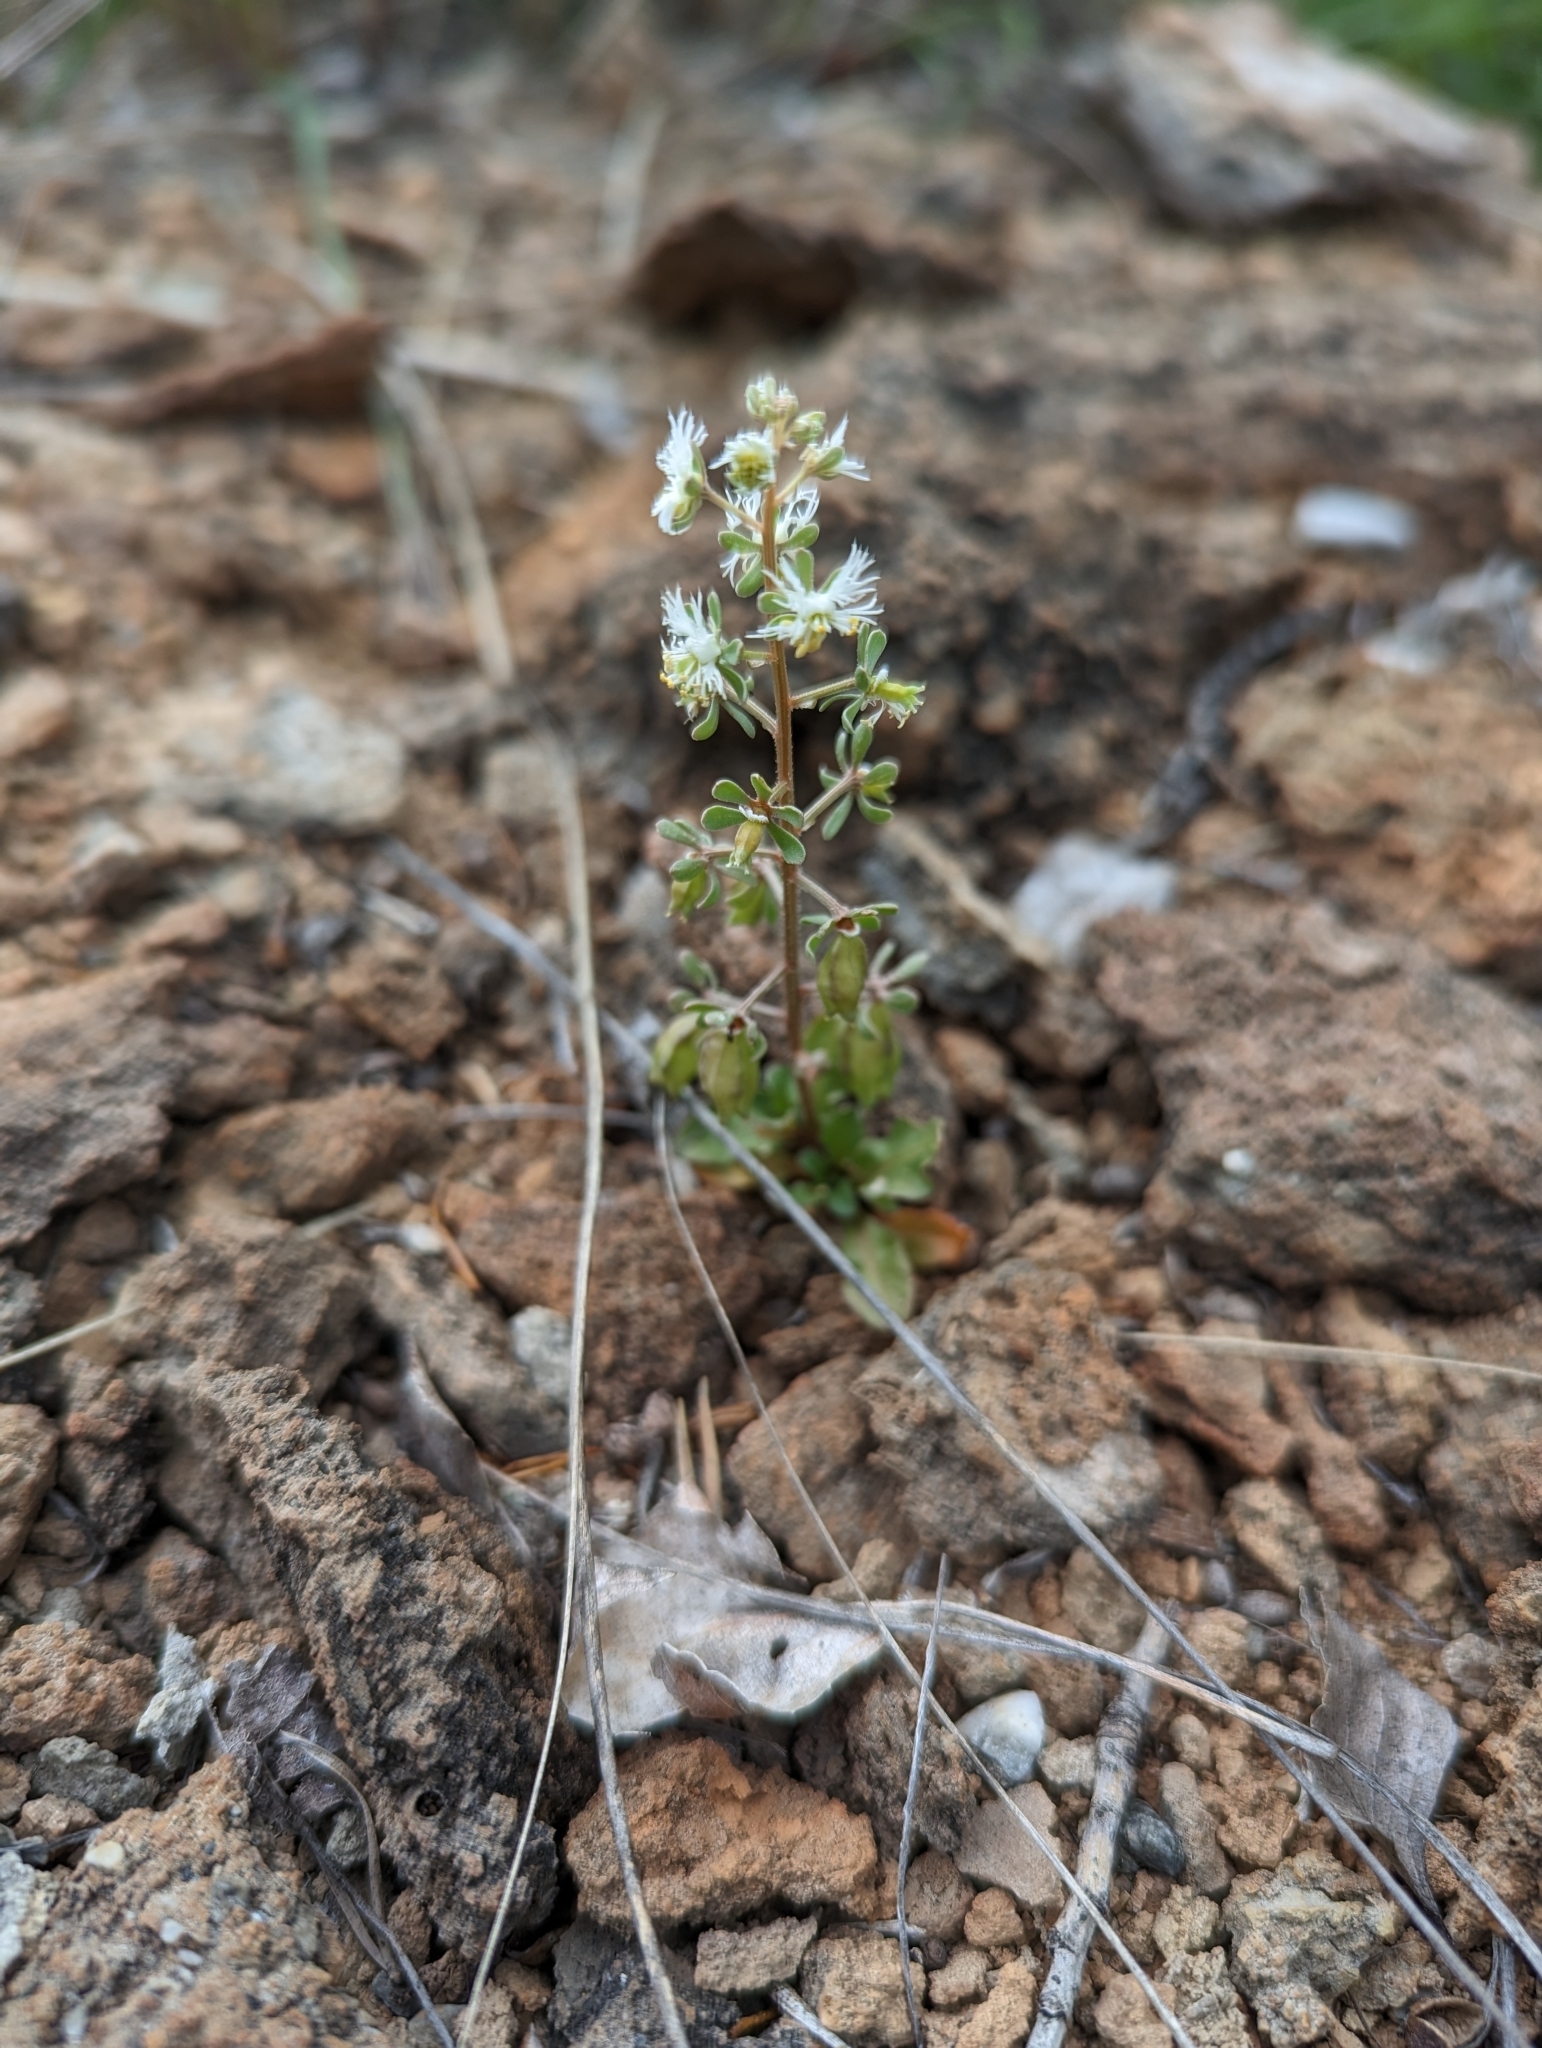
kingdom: Plantae
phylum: Tracheophyta
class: Magnoliopsida
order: Brassicales
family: Resedaceae
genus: Reseda
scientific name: Reseda phyteuma
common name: Corn mignonette
